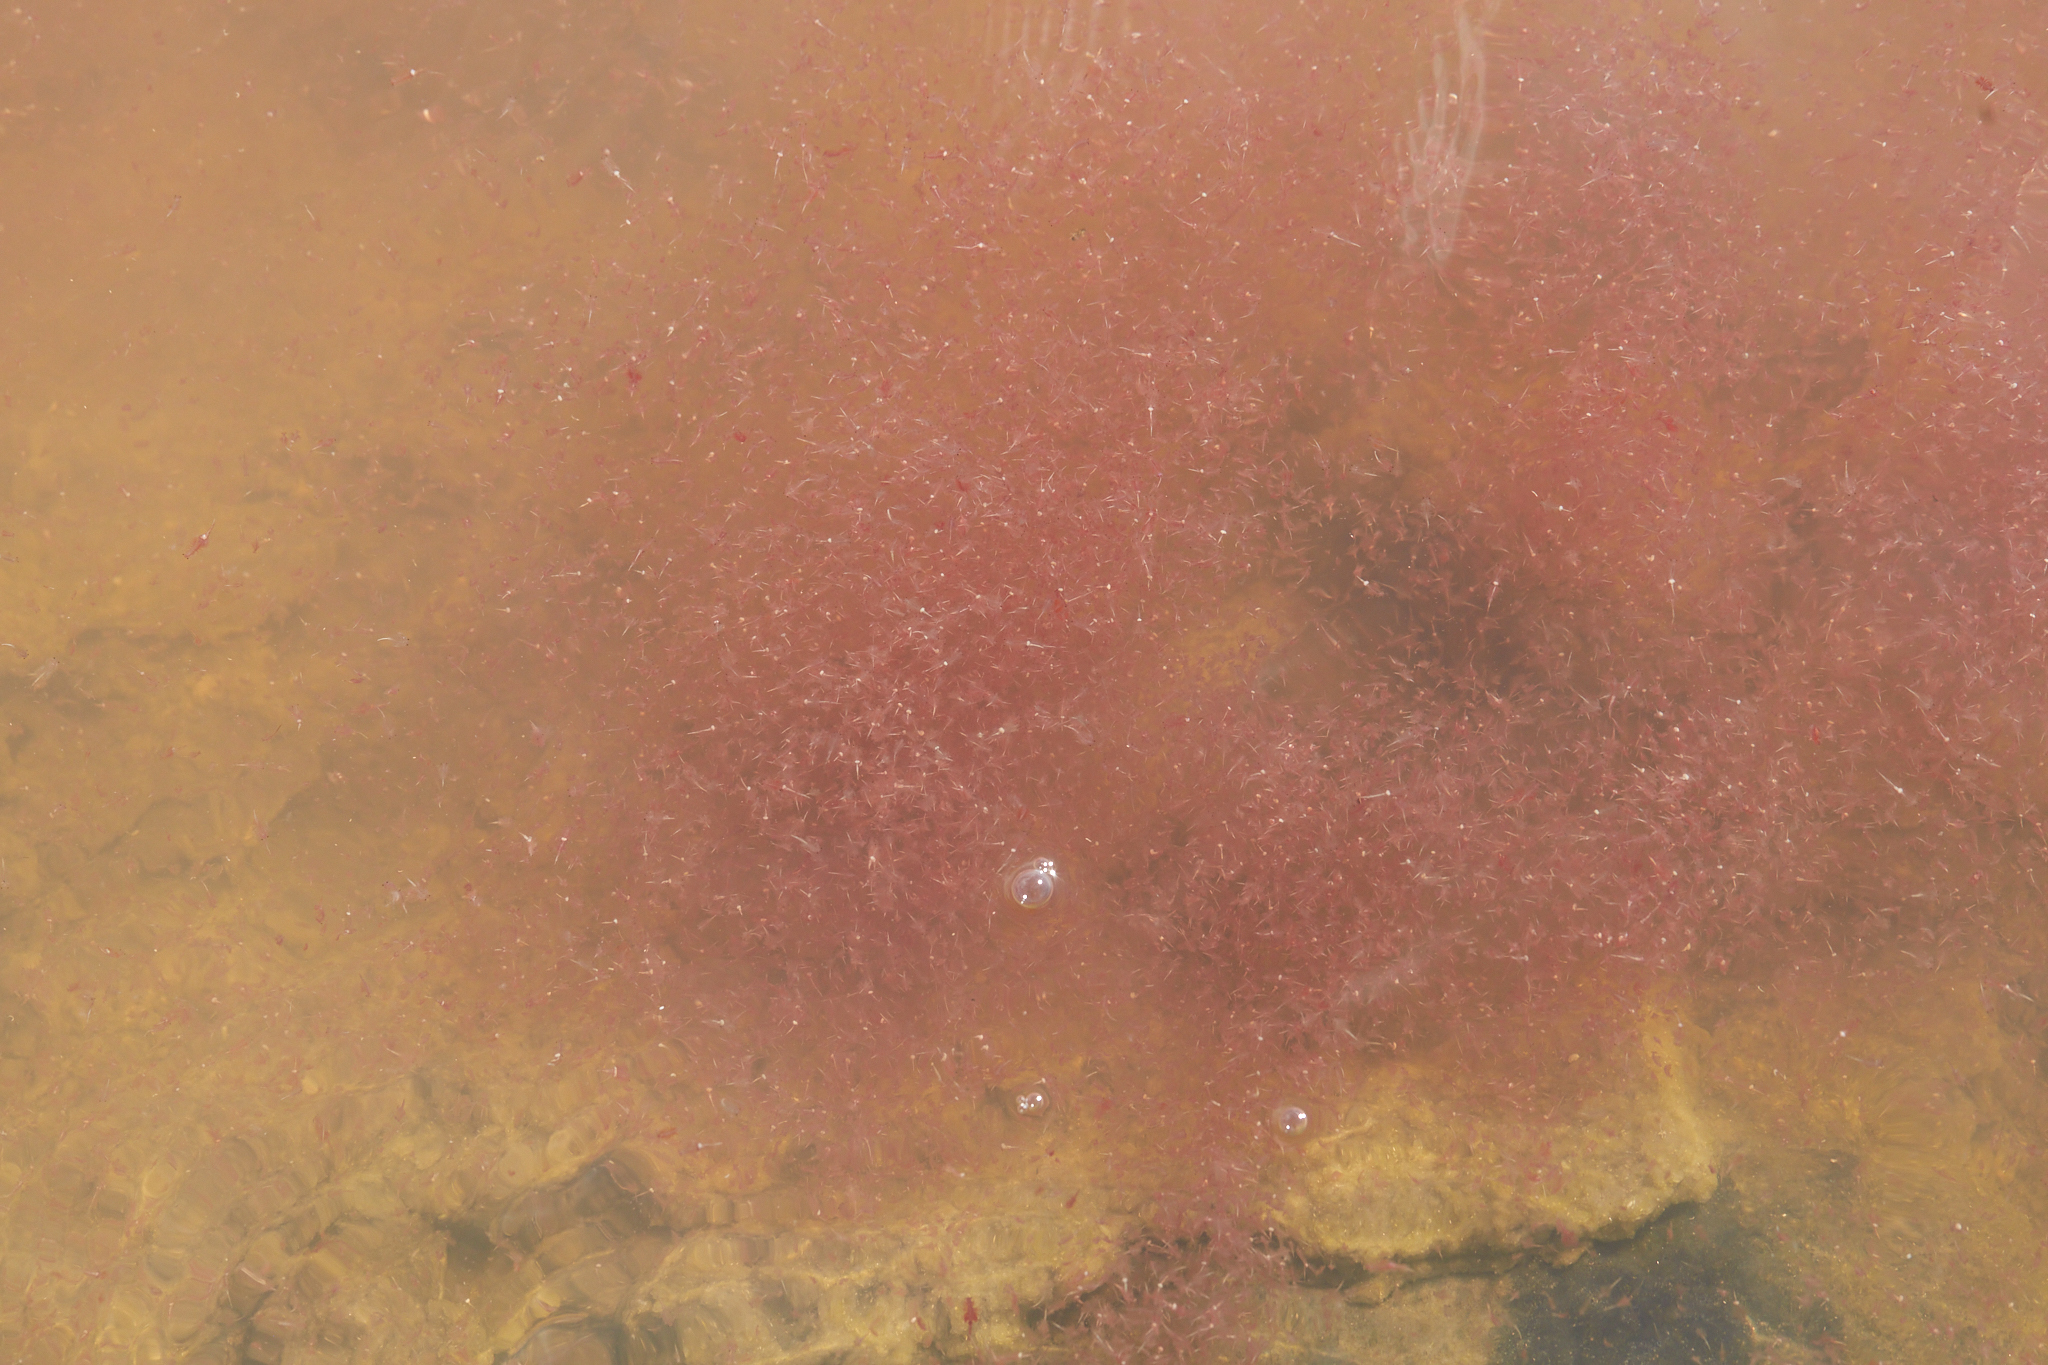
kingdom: Animalia
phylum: Arthropoda
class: Branchiopoda
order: Anostraca
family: Artemiidae
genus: Artemia
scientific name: Artemia monica
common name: Mono lake brine shrimp
